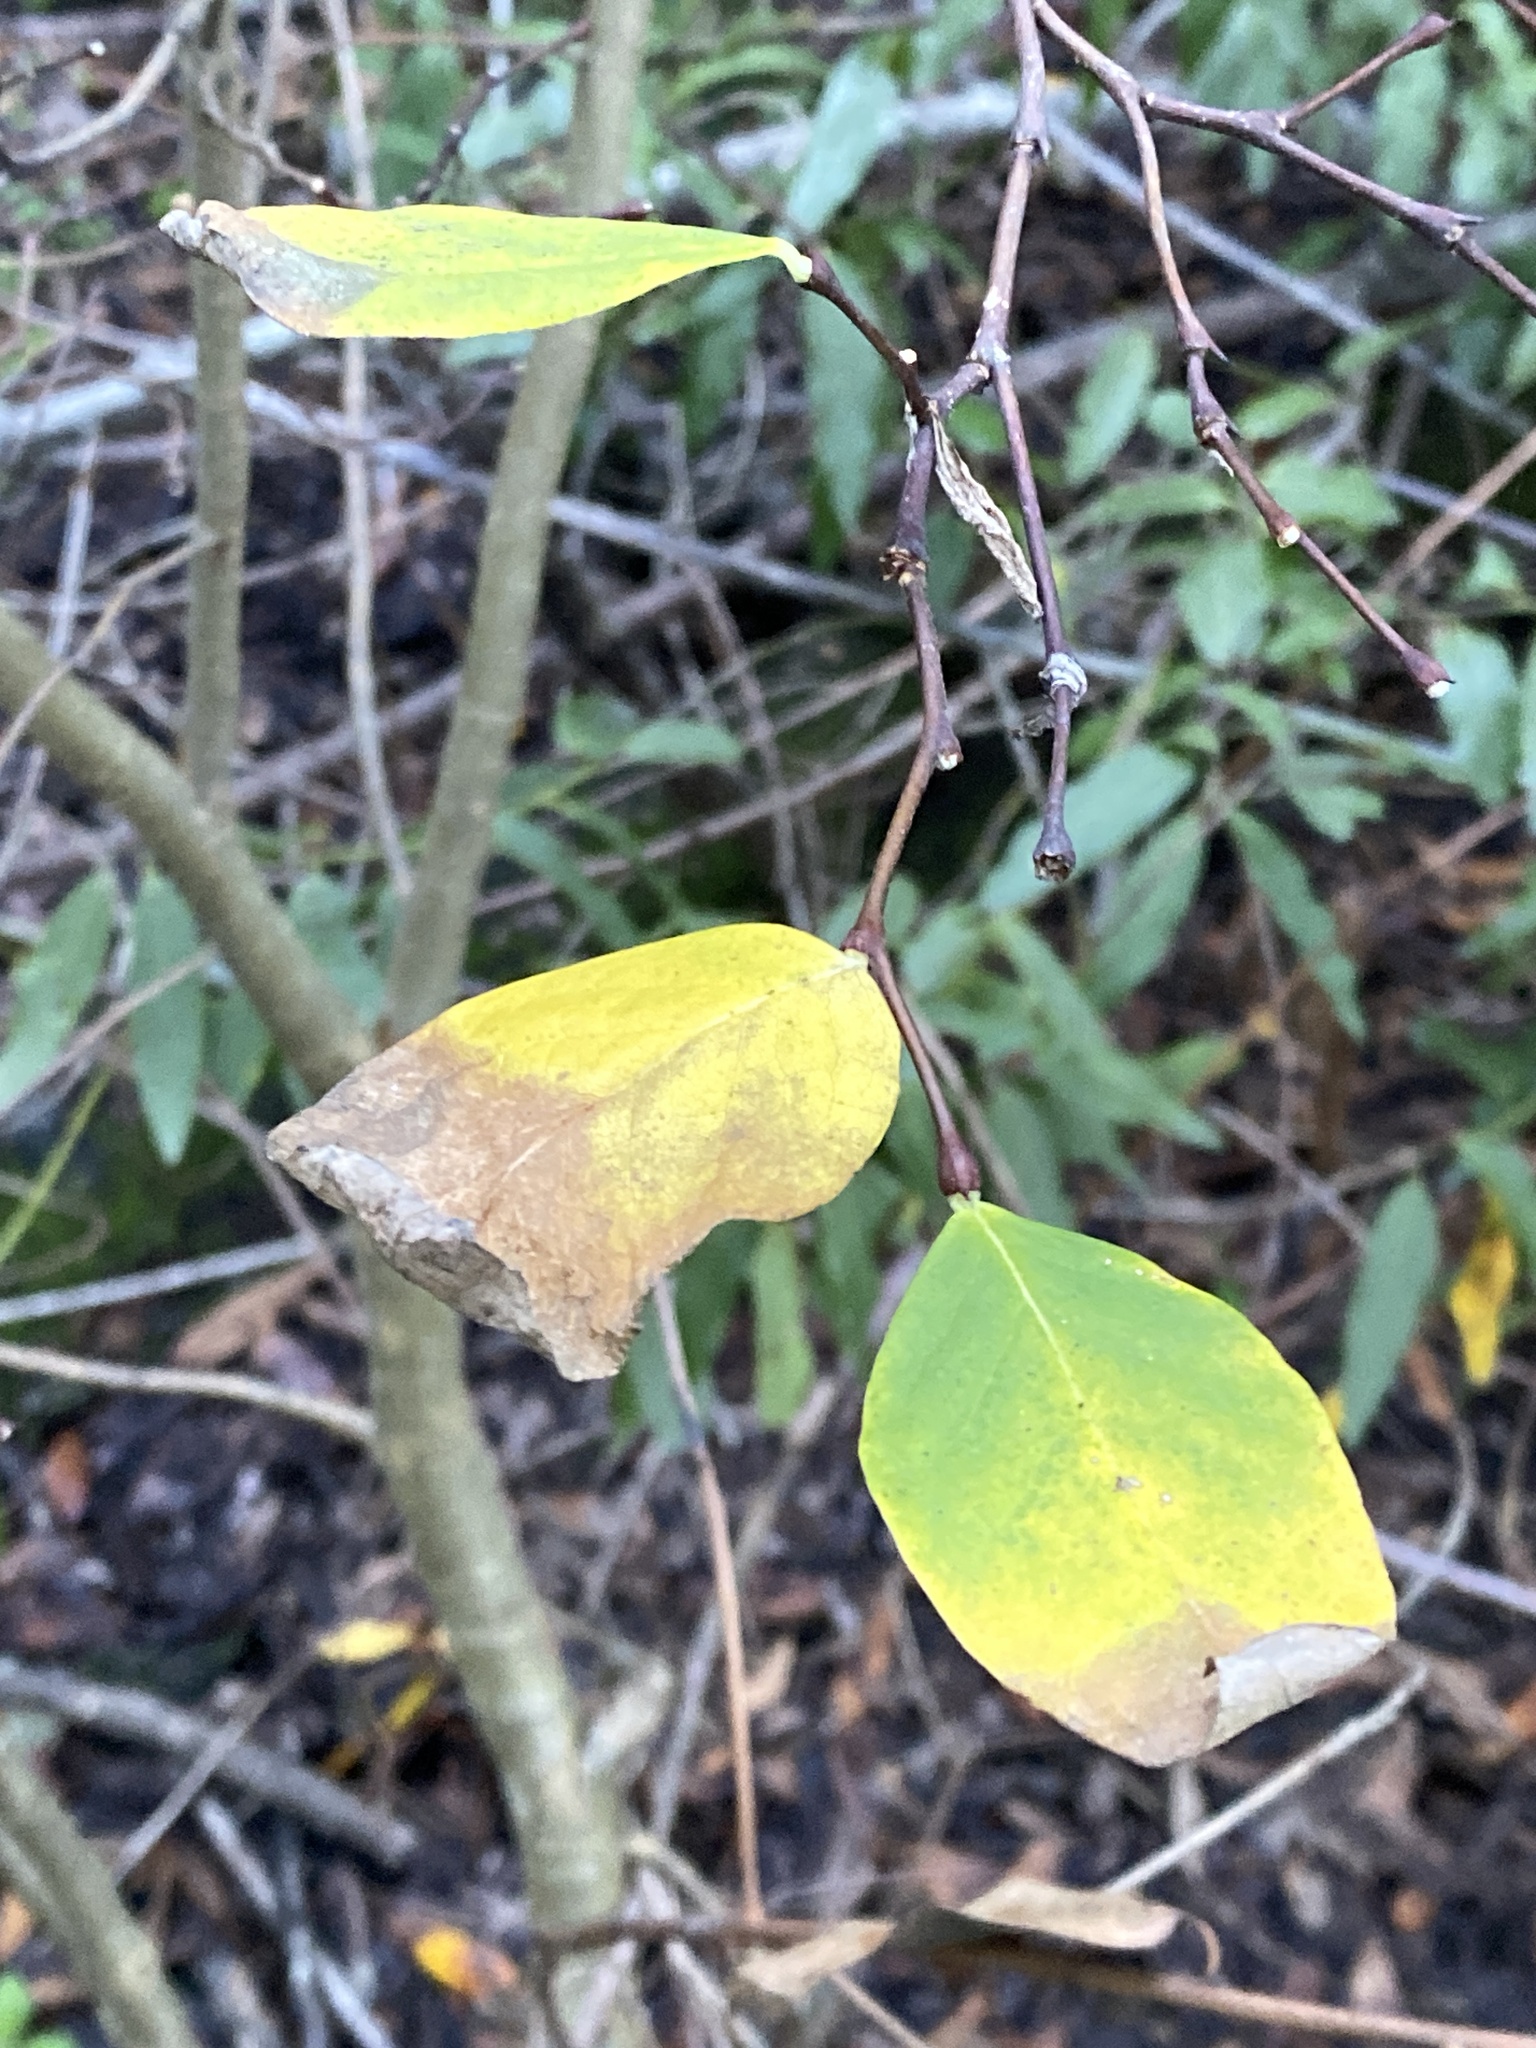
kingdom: Plantae
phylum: Tracheophyta
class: Magnoliopsida
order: Malvales
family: Thymelaeaceae
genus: Dirca
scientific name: Dirca occidentalis
